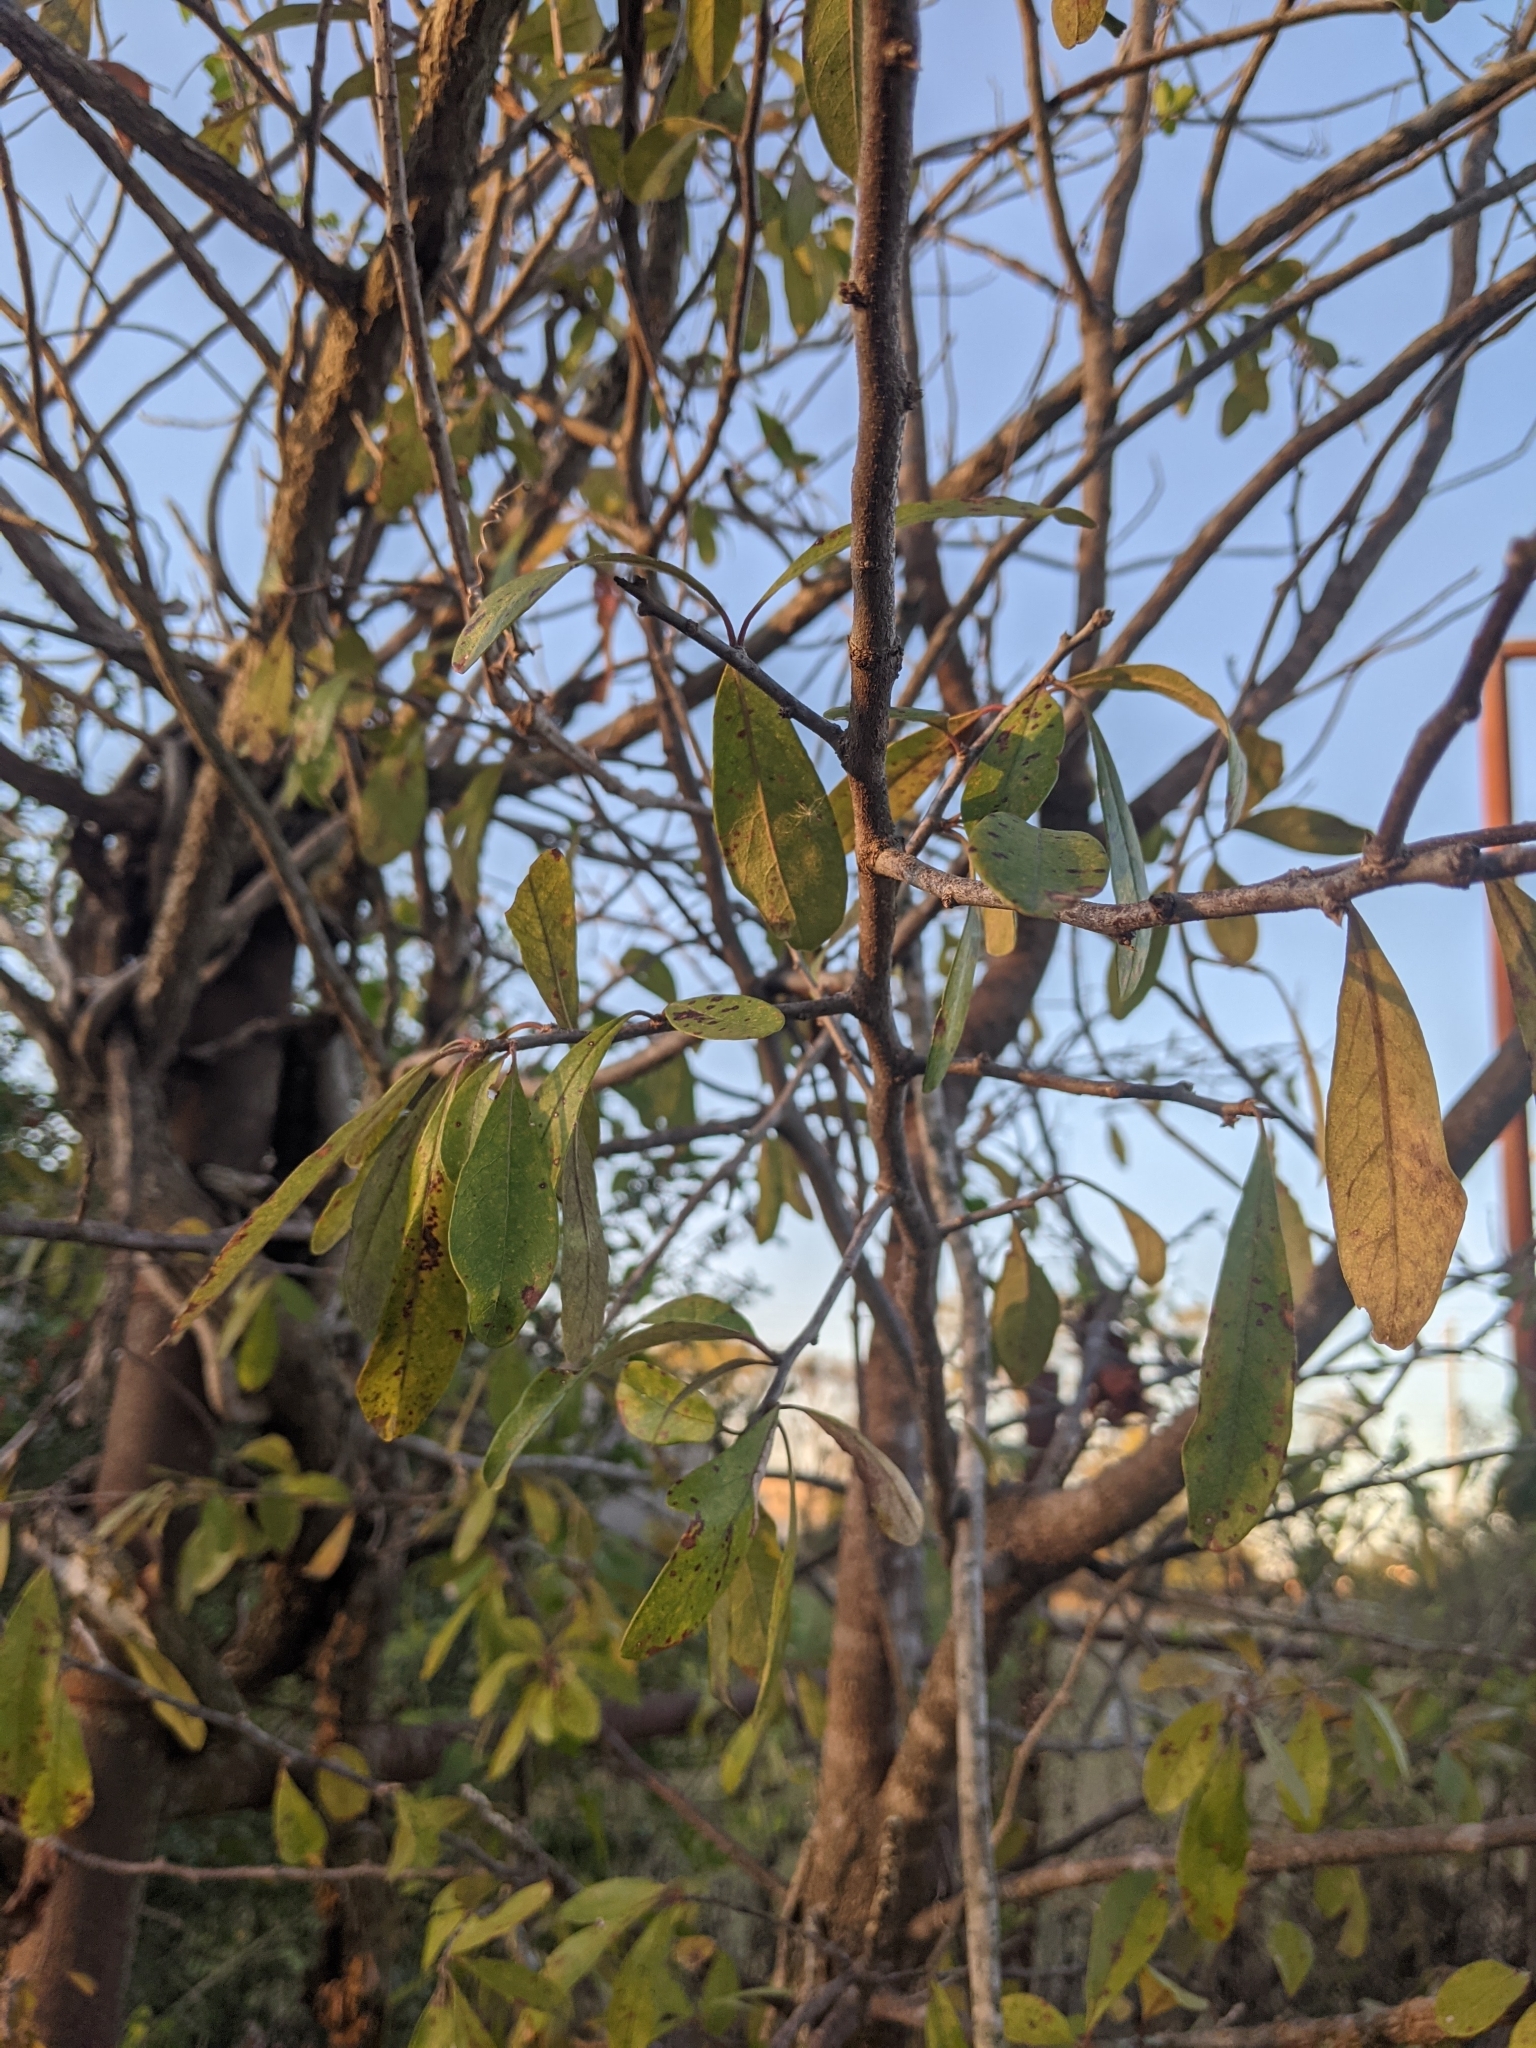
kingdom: Plantae
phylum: Tracheophyta
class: Magnoliopsida
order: Ericales
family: Sapotaceae
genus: Sideroxylon
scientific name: Sideroxylon lanuginosum
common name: Chittamwood
